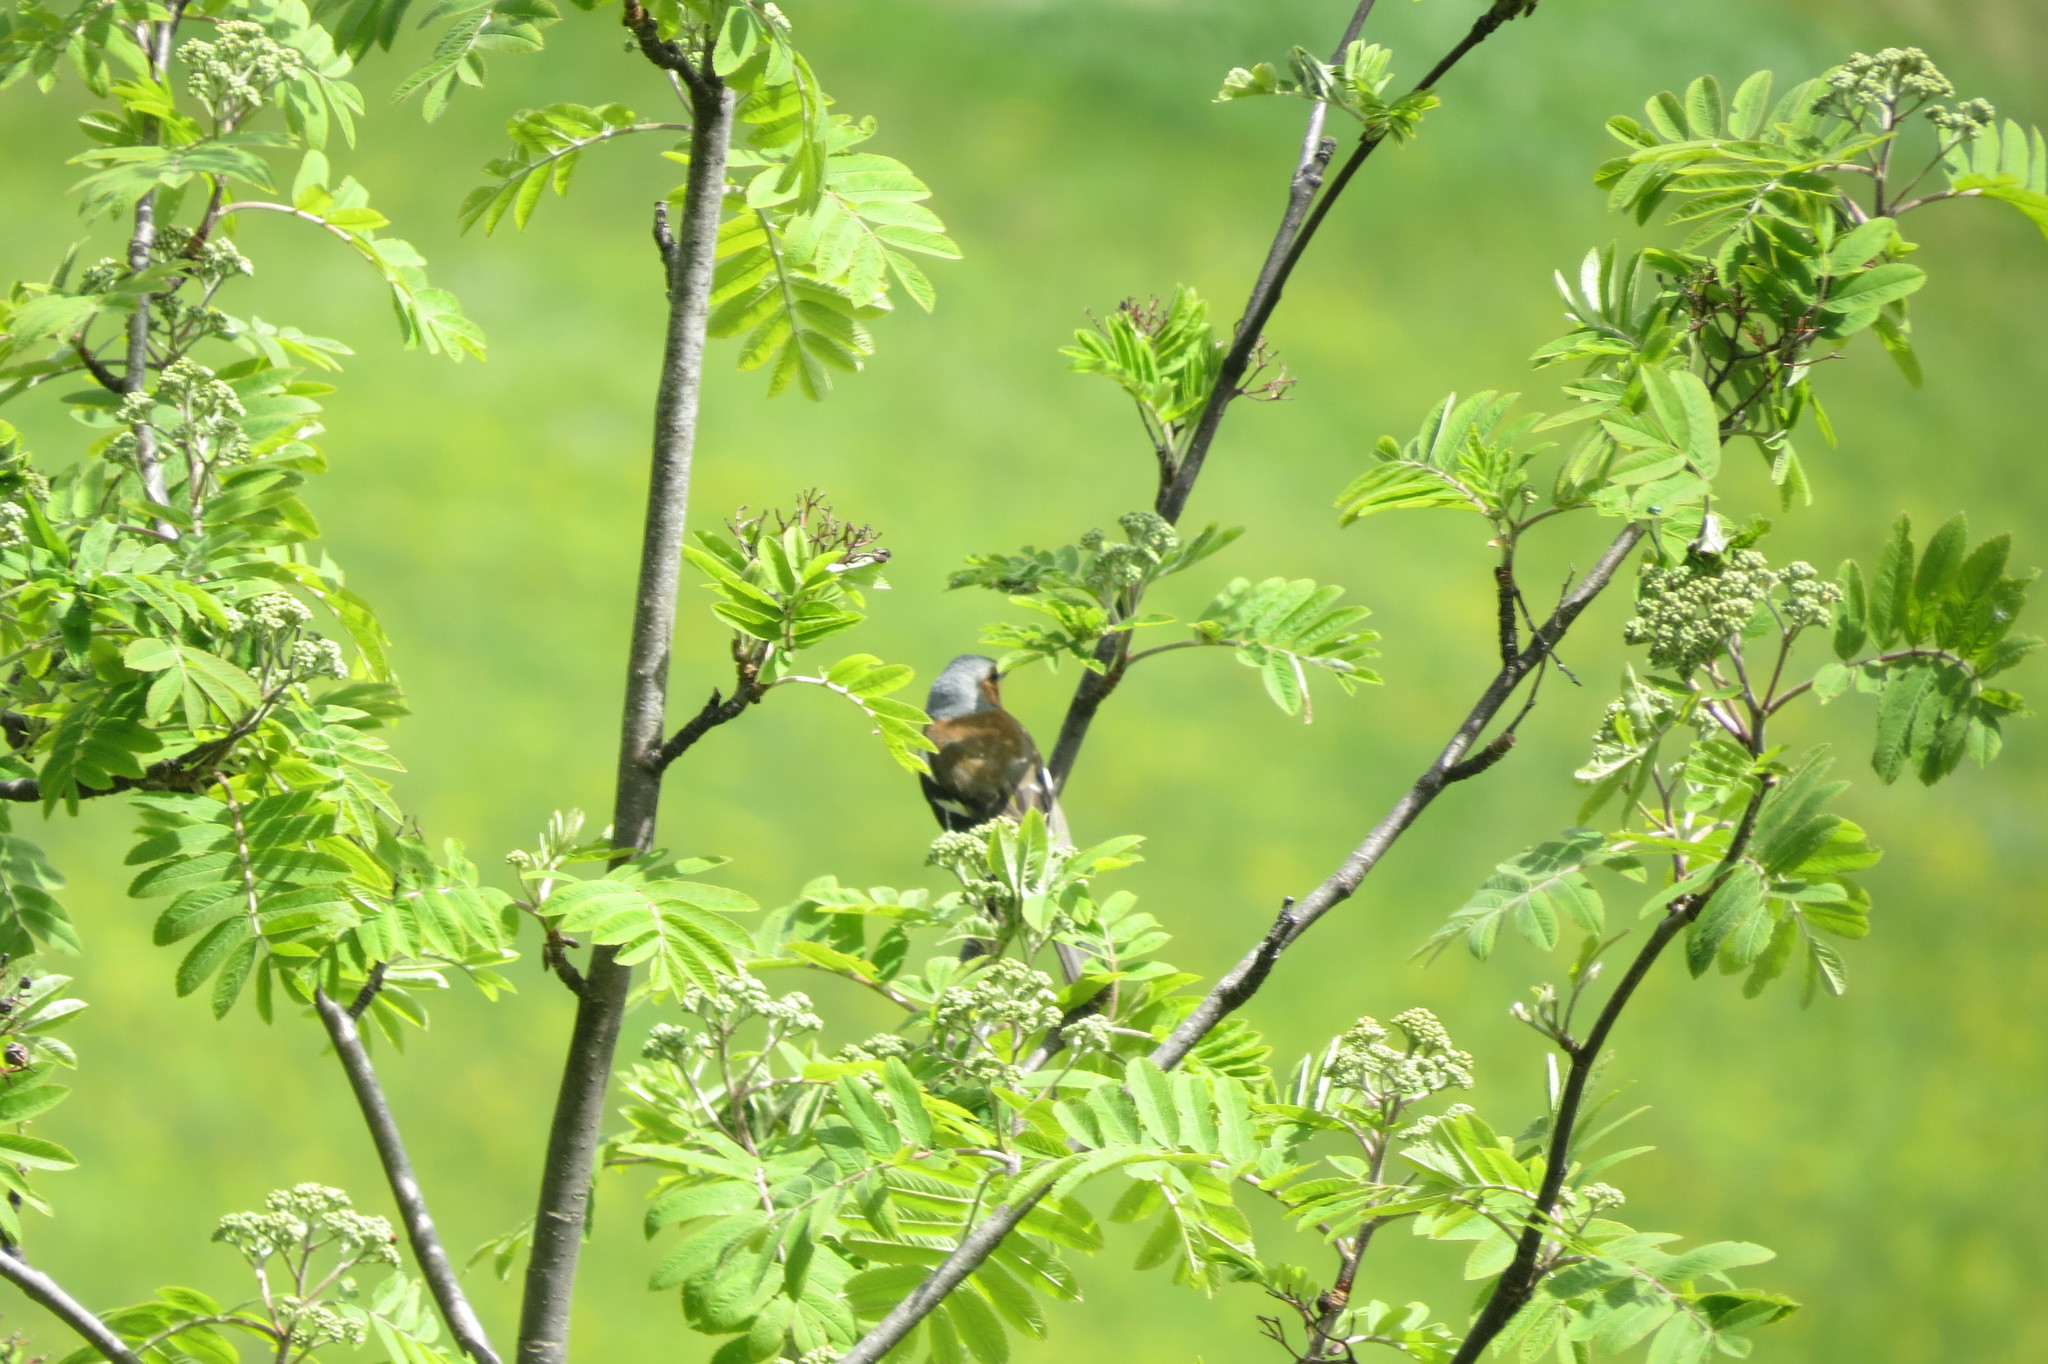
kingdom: Animalia
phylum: Chordata
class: Aves
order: Passeriformes
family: Fringillidae
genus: Fringilla
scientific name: Fringilla coelebs
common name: Common chaffinch
